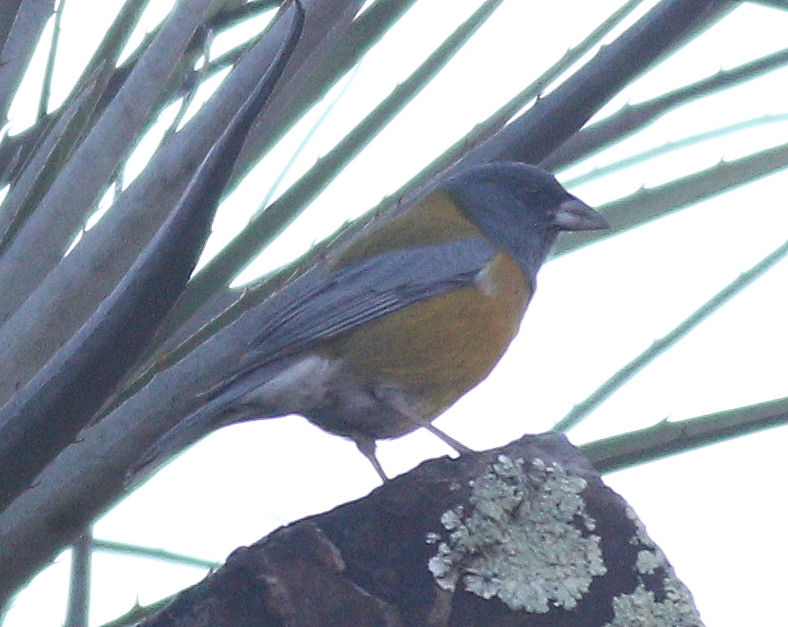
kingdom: Animalia
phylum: Chordata
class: Aves
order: Passeriformes
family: Thraupidae
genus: Phrygilus
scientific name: Phrygilus punensis
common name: Peruvian sierra finch
